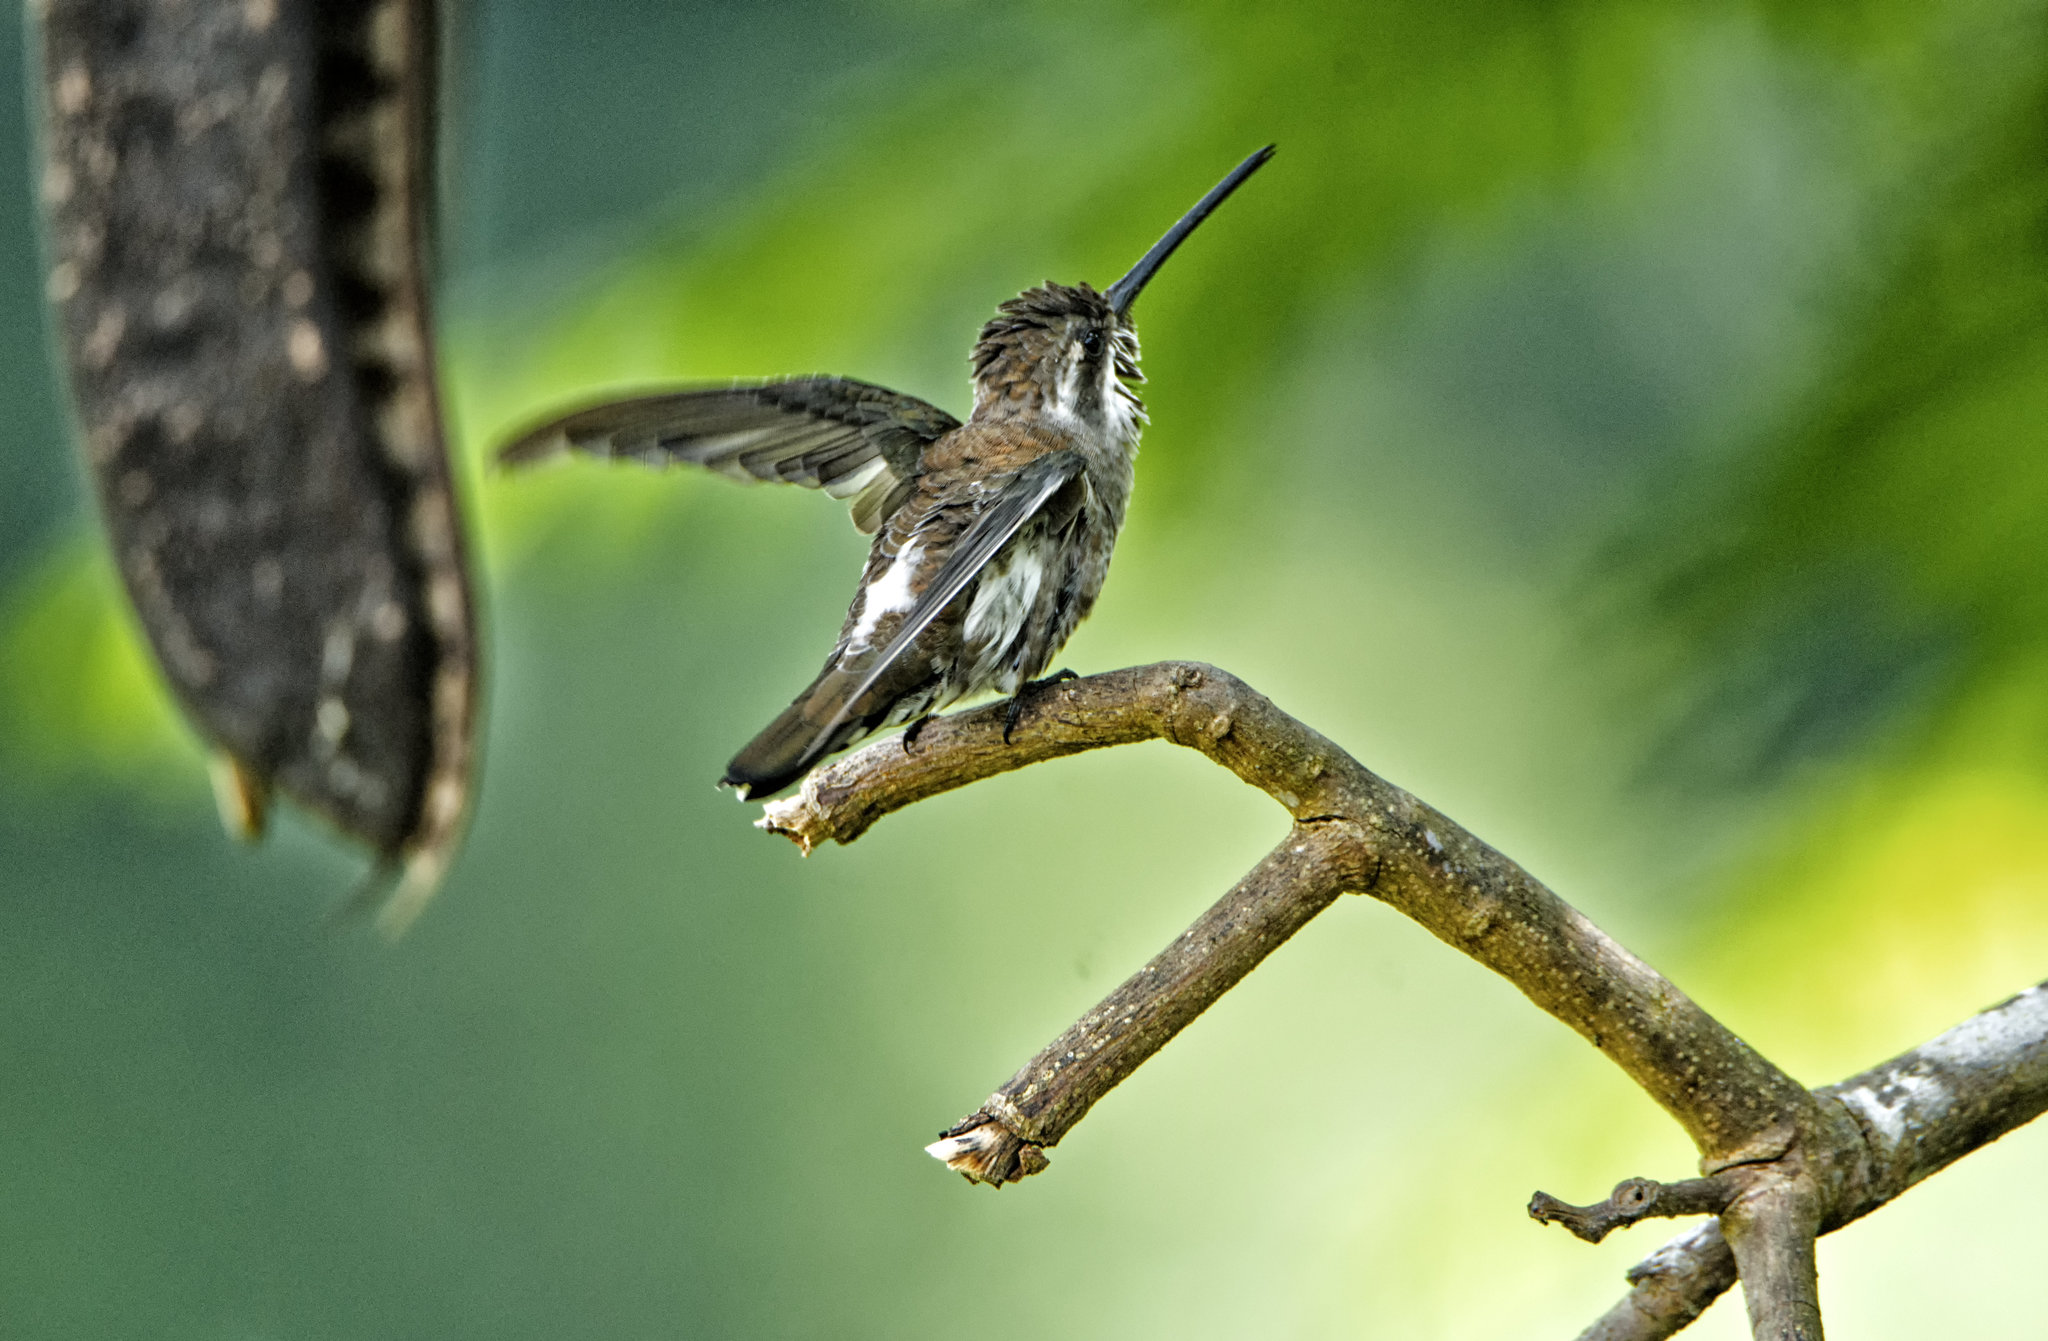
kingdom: Animalia
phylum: Chordata
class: Aves
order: Apodiformes
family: Trochilidae
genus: Heliomaster
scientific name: Heliomaster constantii
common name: Plain-capped starthroat
